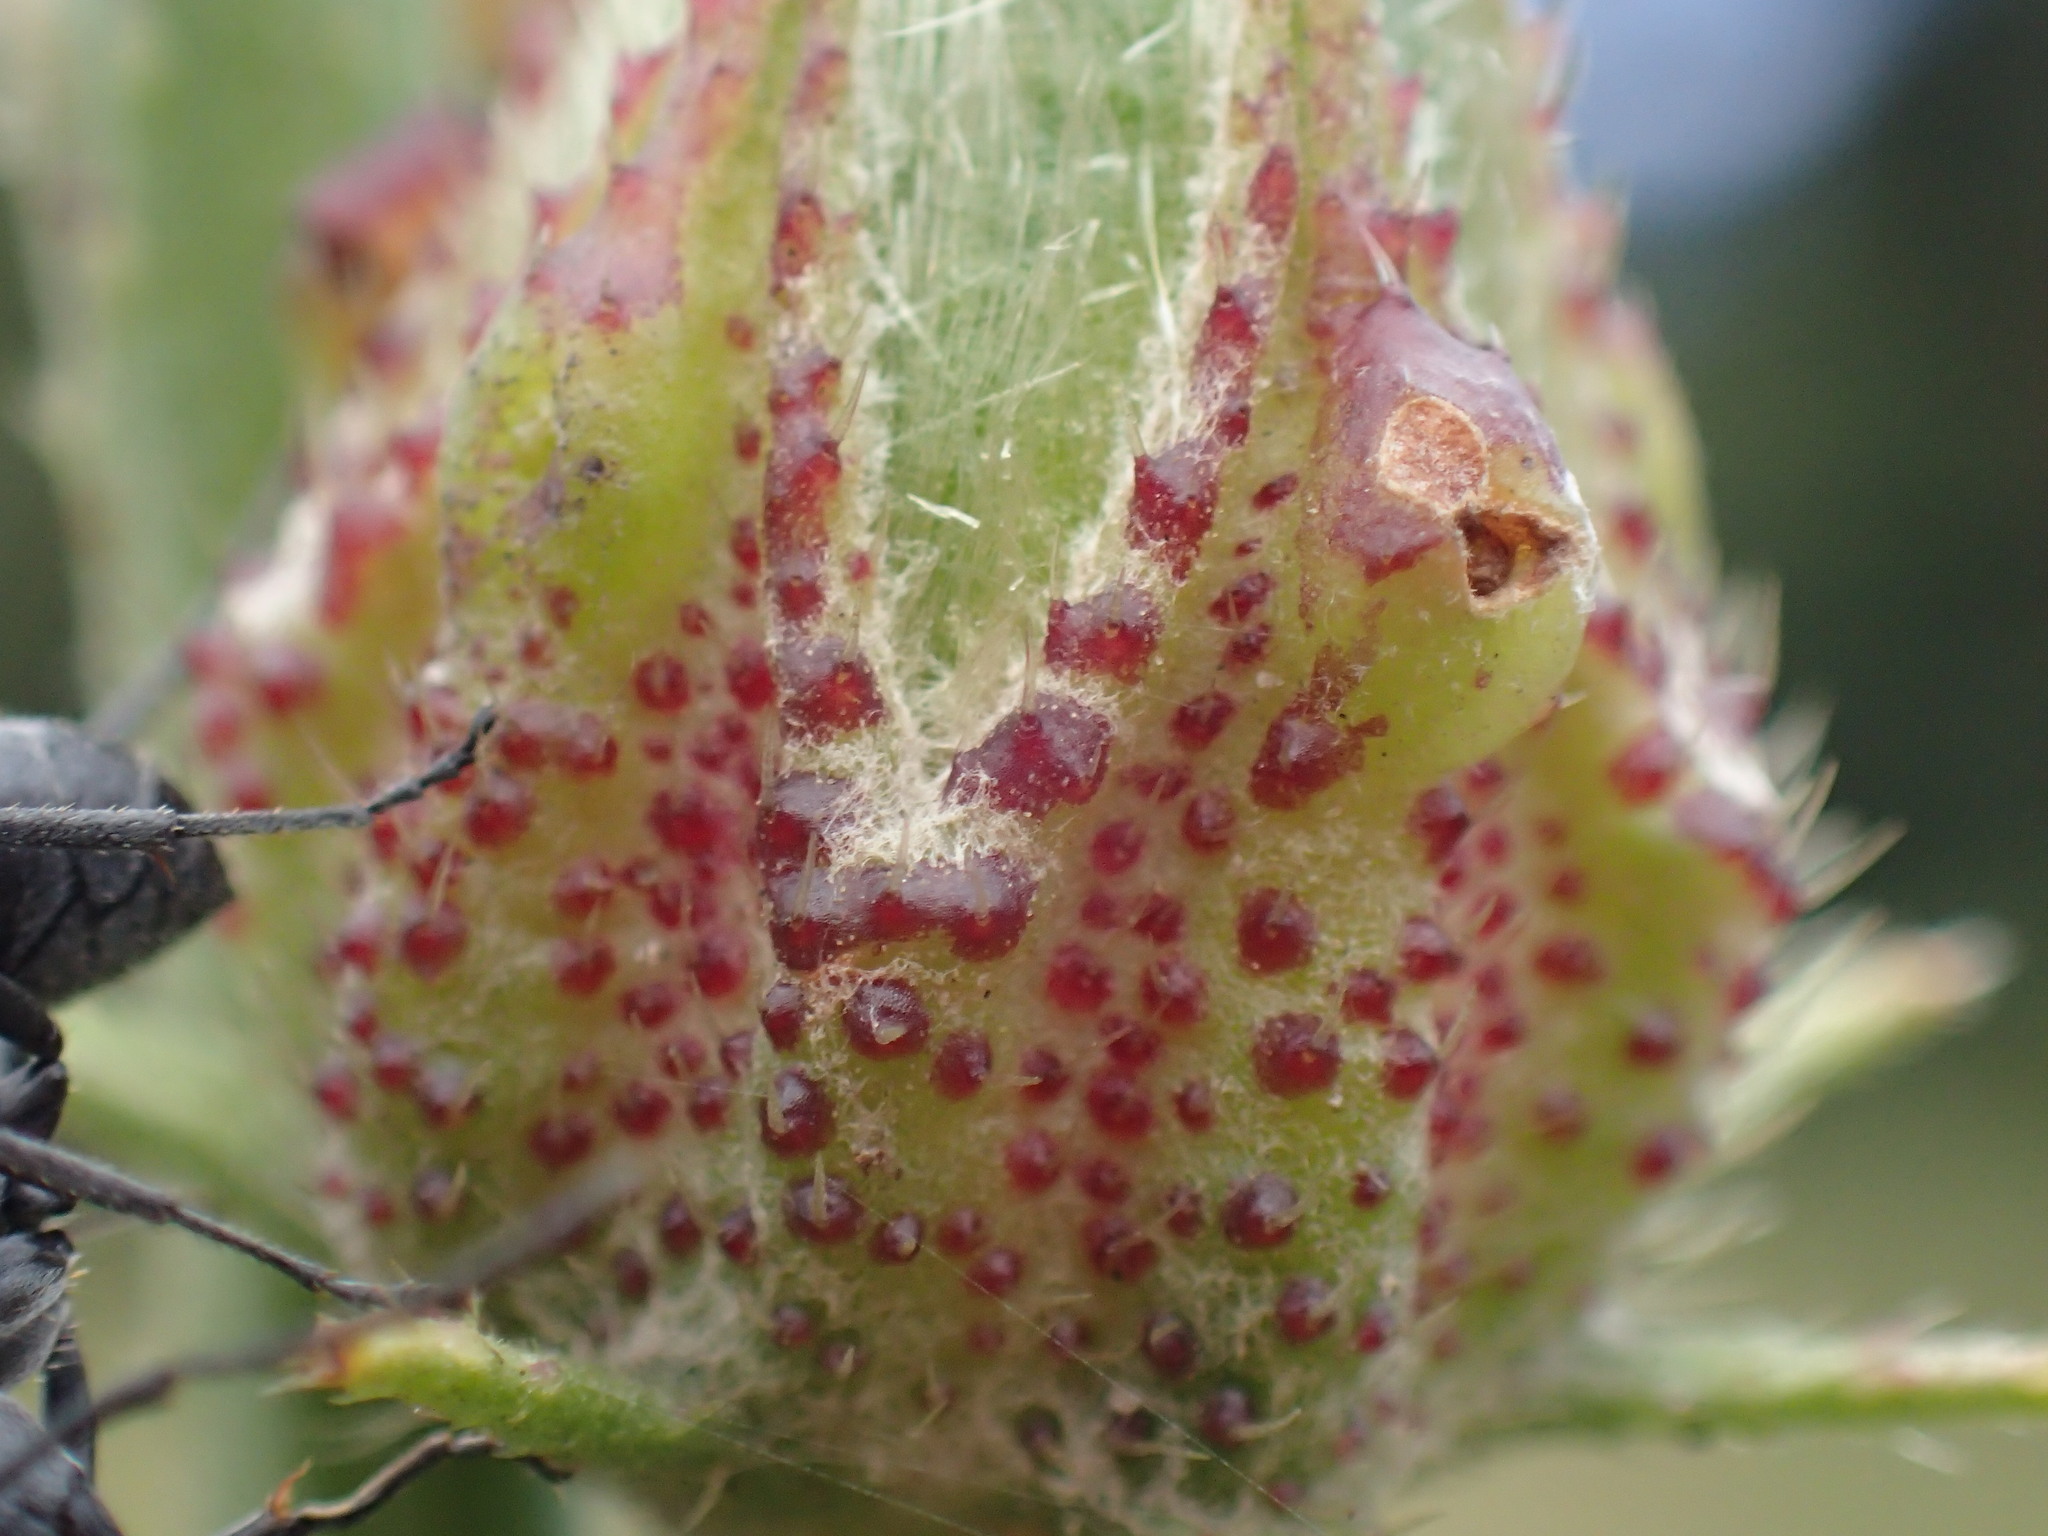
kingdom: Plantae
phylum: Tracheophyta
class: Magnoliopsida
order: Malvales
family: Malvaceae
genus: Hibiscus
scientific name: Hibiscus cannabinus
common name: Brown indianhemp
